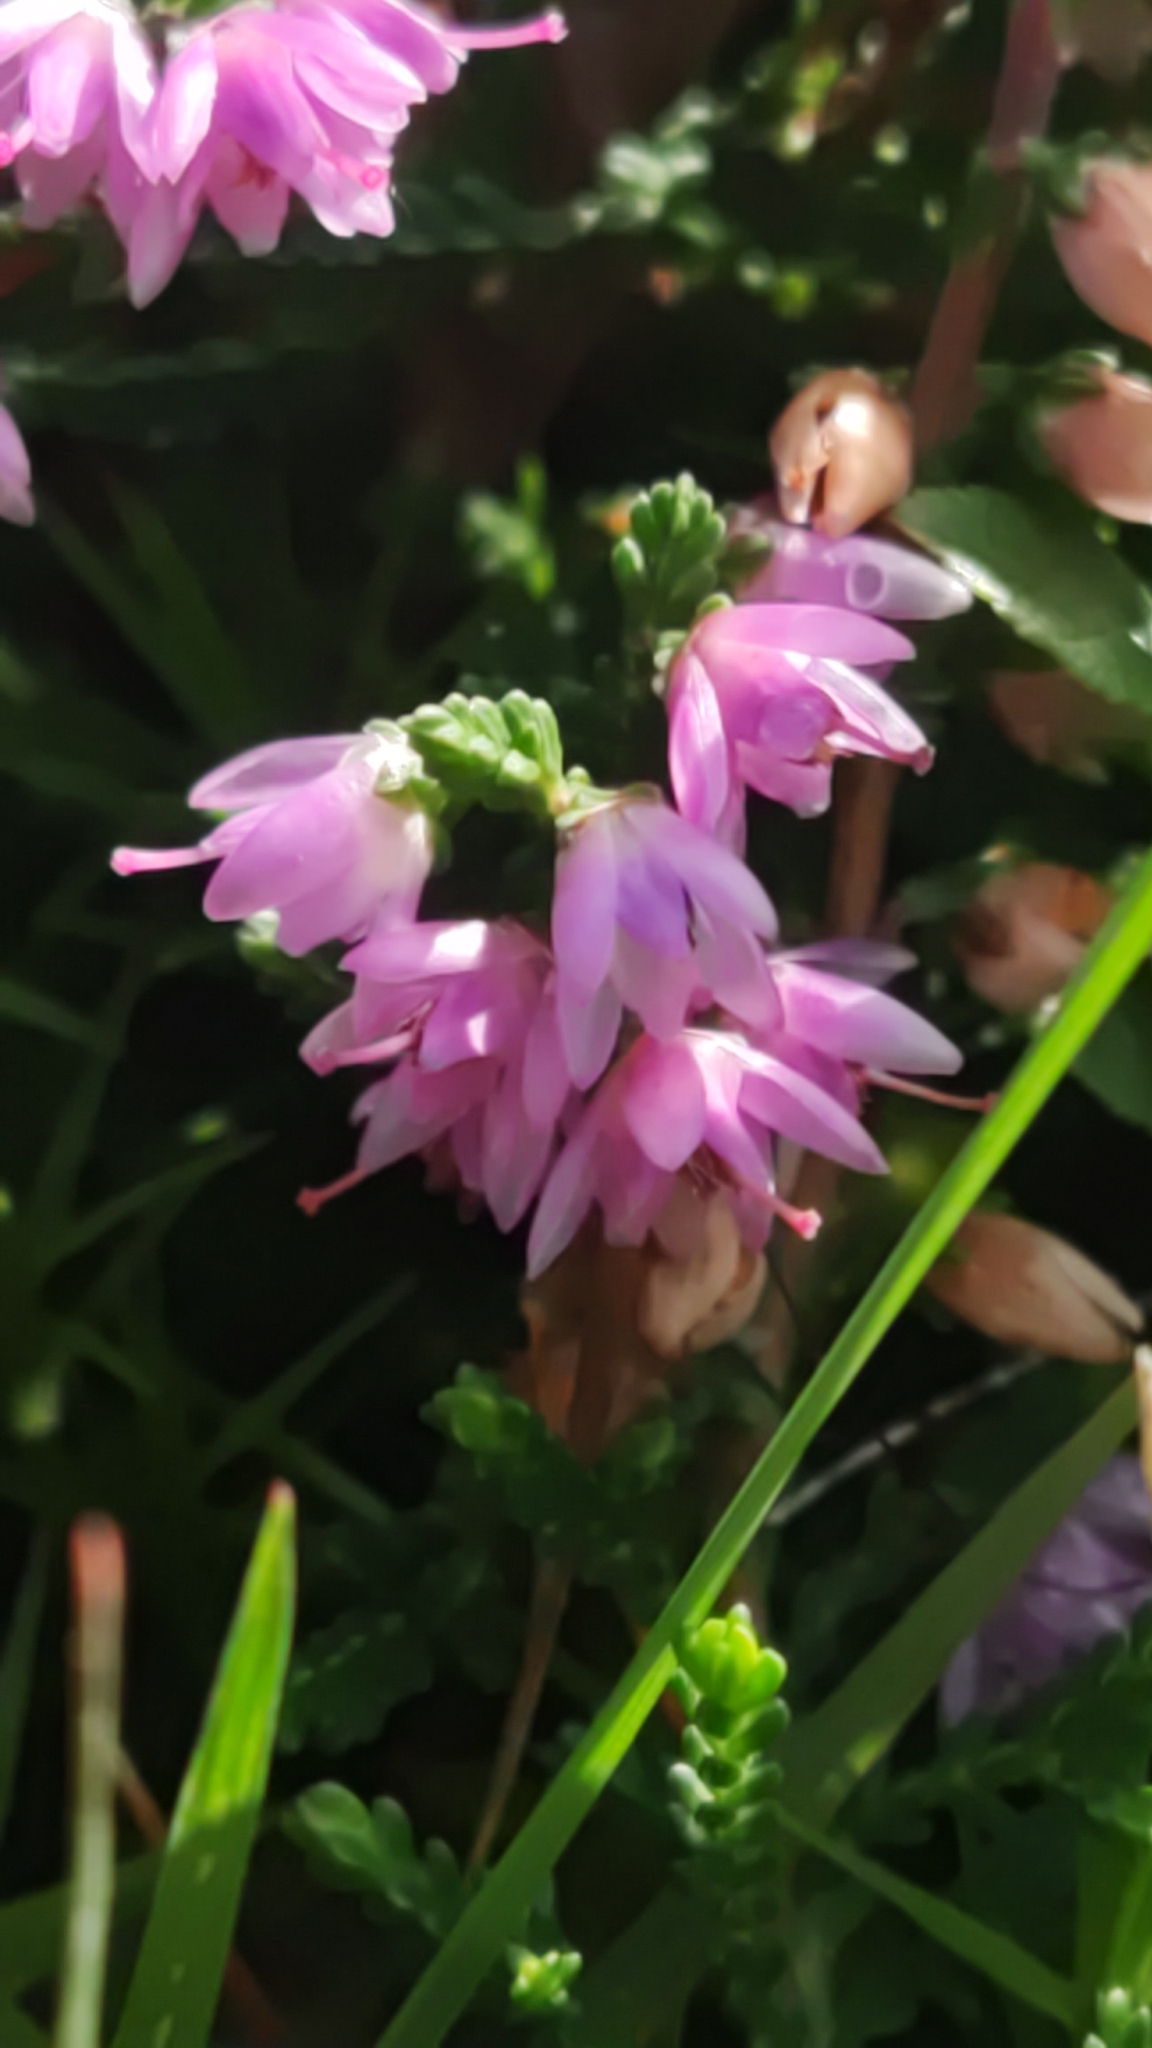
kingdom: Plantae
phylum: Tracheophyta
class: Magnoliopsida
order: Ericales
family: Ericaceae
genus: Calluna
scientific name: Calluna vulgaris
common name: Heather
